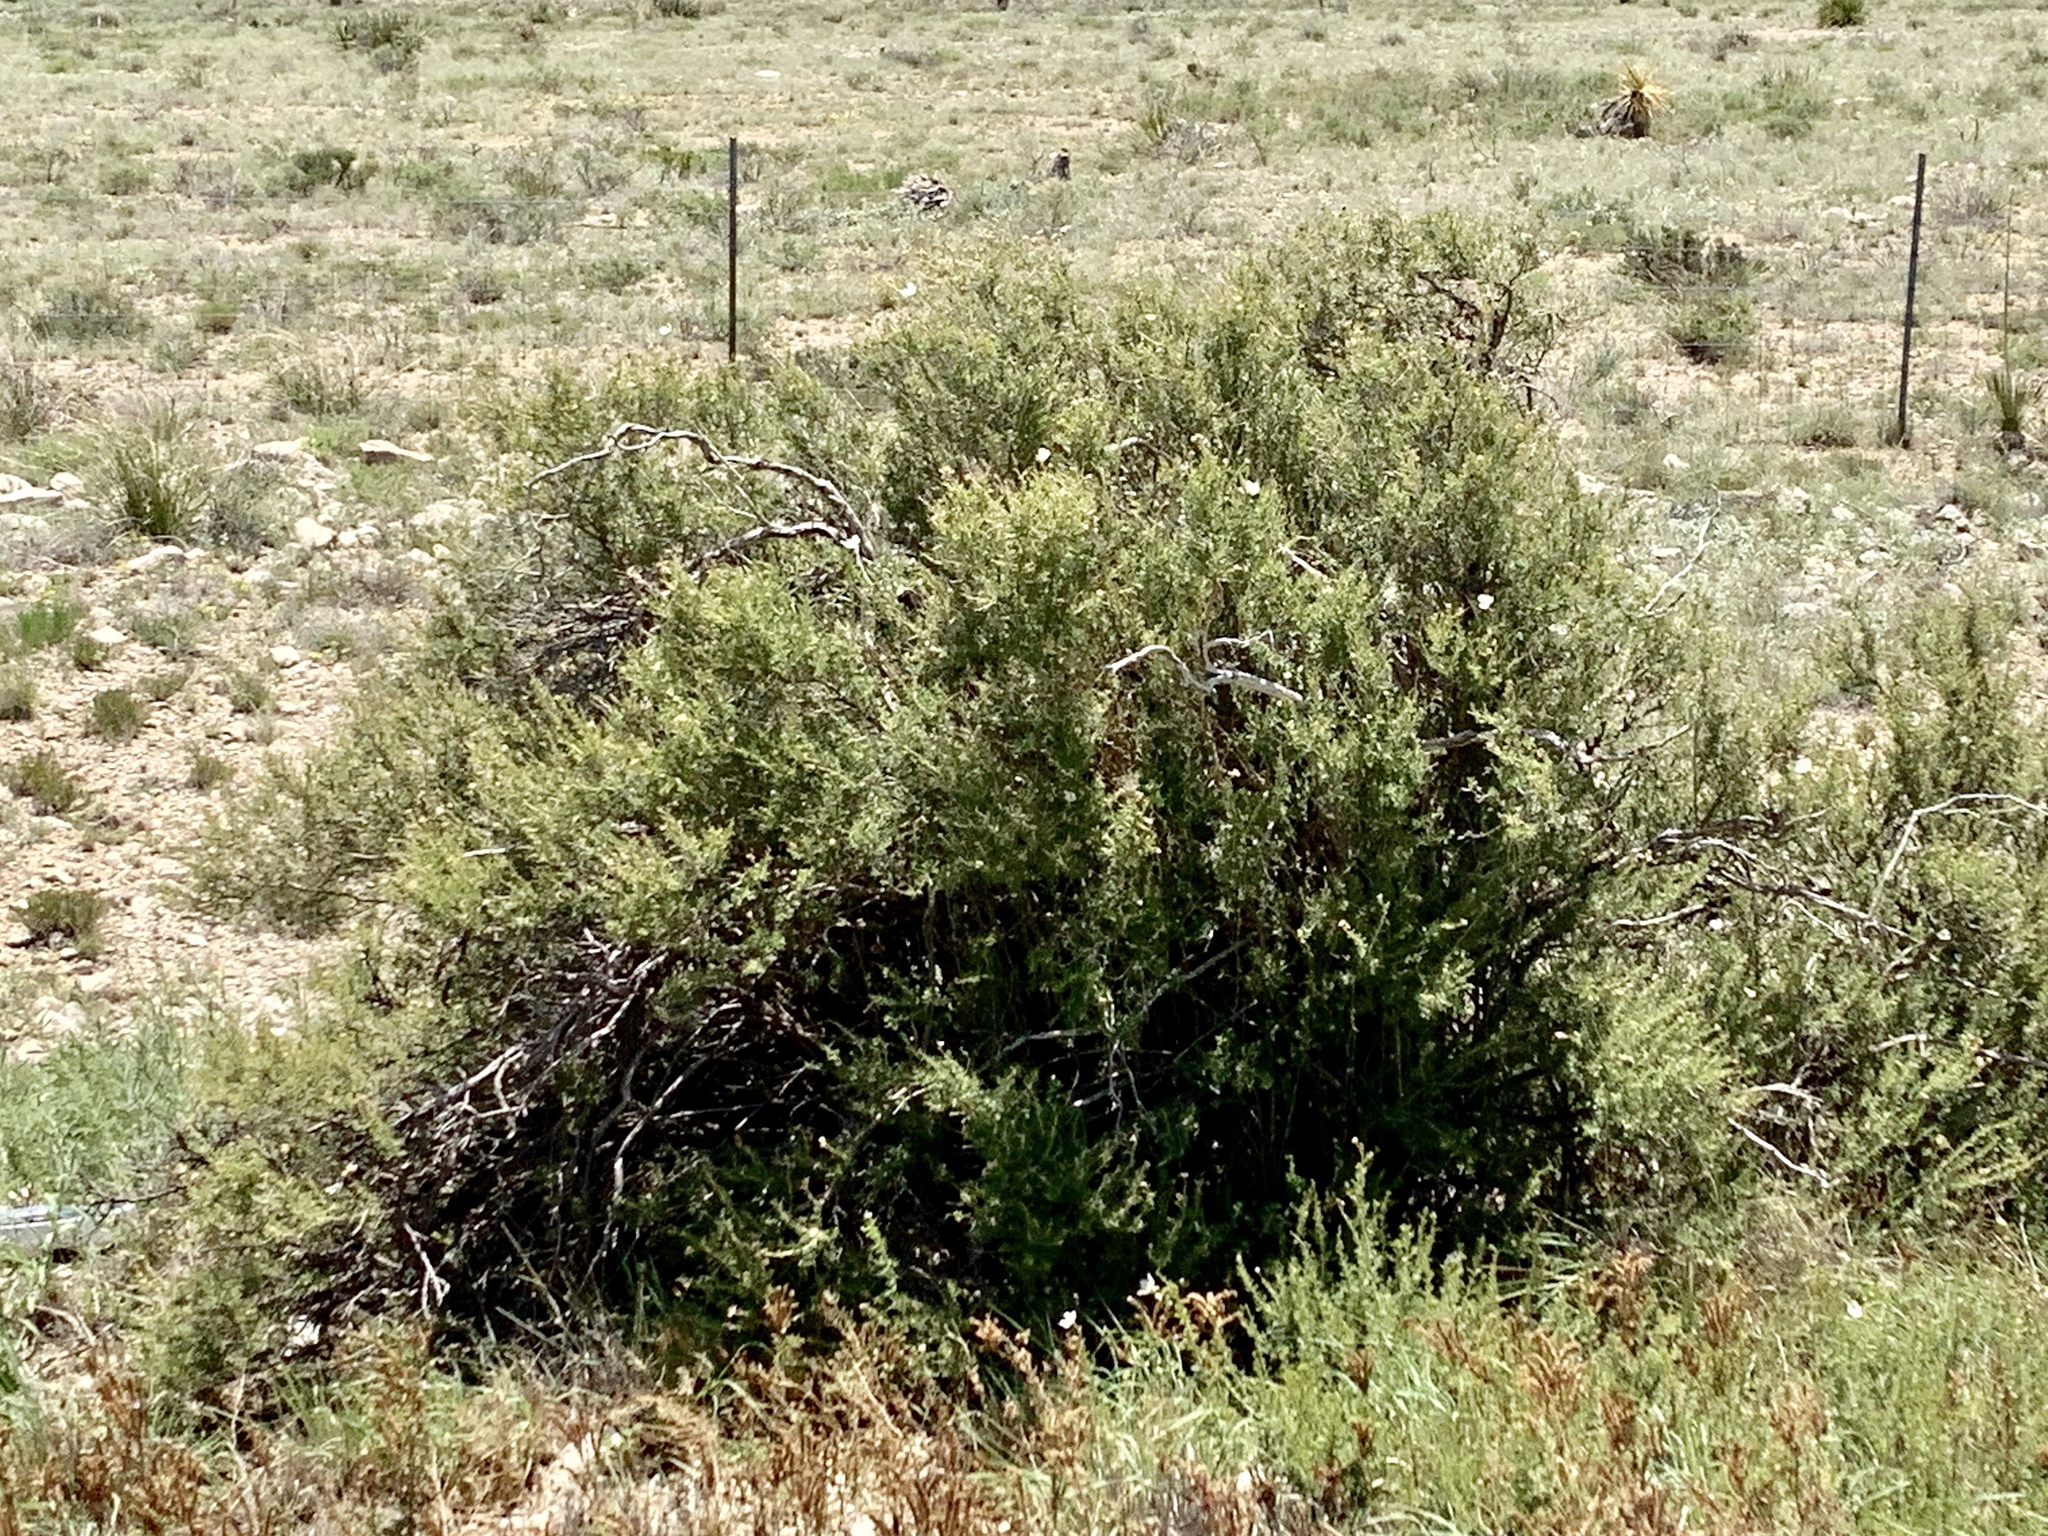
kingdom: Plantae
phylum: Tracheophyta
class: Magnoliopsida
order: Rosales
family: Rosaceae
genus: Fallugia
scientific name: Fallugia paradoxa
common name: Apache-plume
